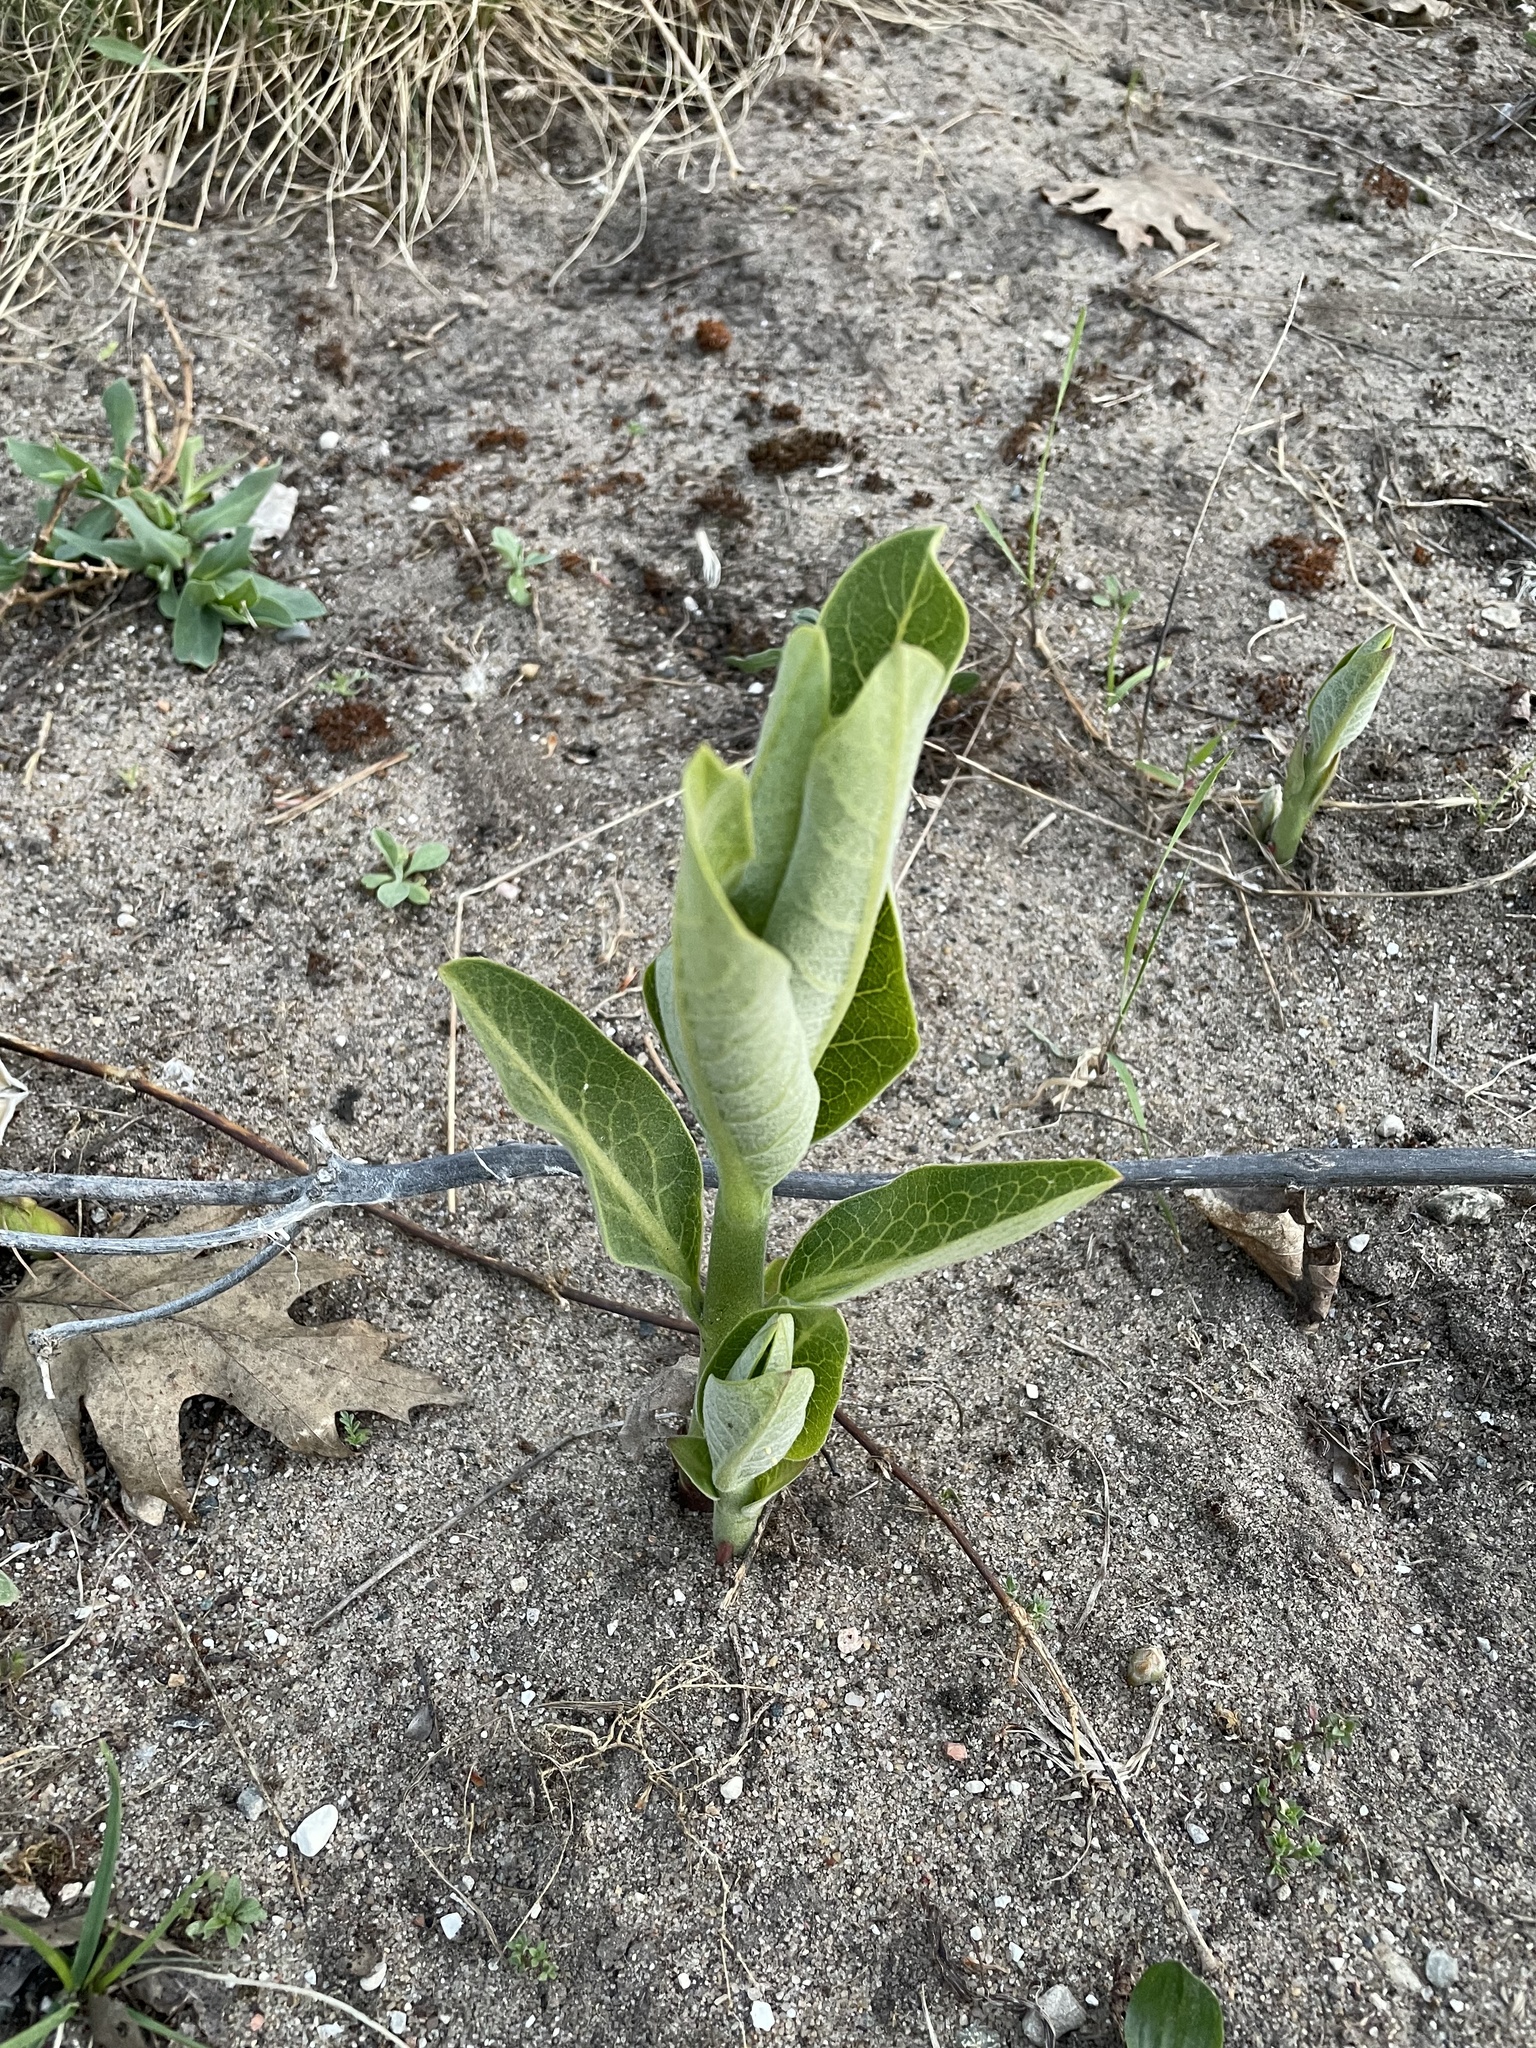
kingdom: Plantae
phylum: Tracheophyta
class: Magnoliopsida
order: Gentianales
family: Apocynaceae
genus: Asclepias
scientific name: Asclepias syriaca
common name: Common milkweed
